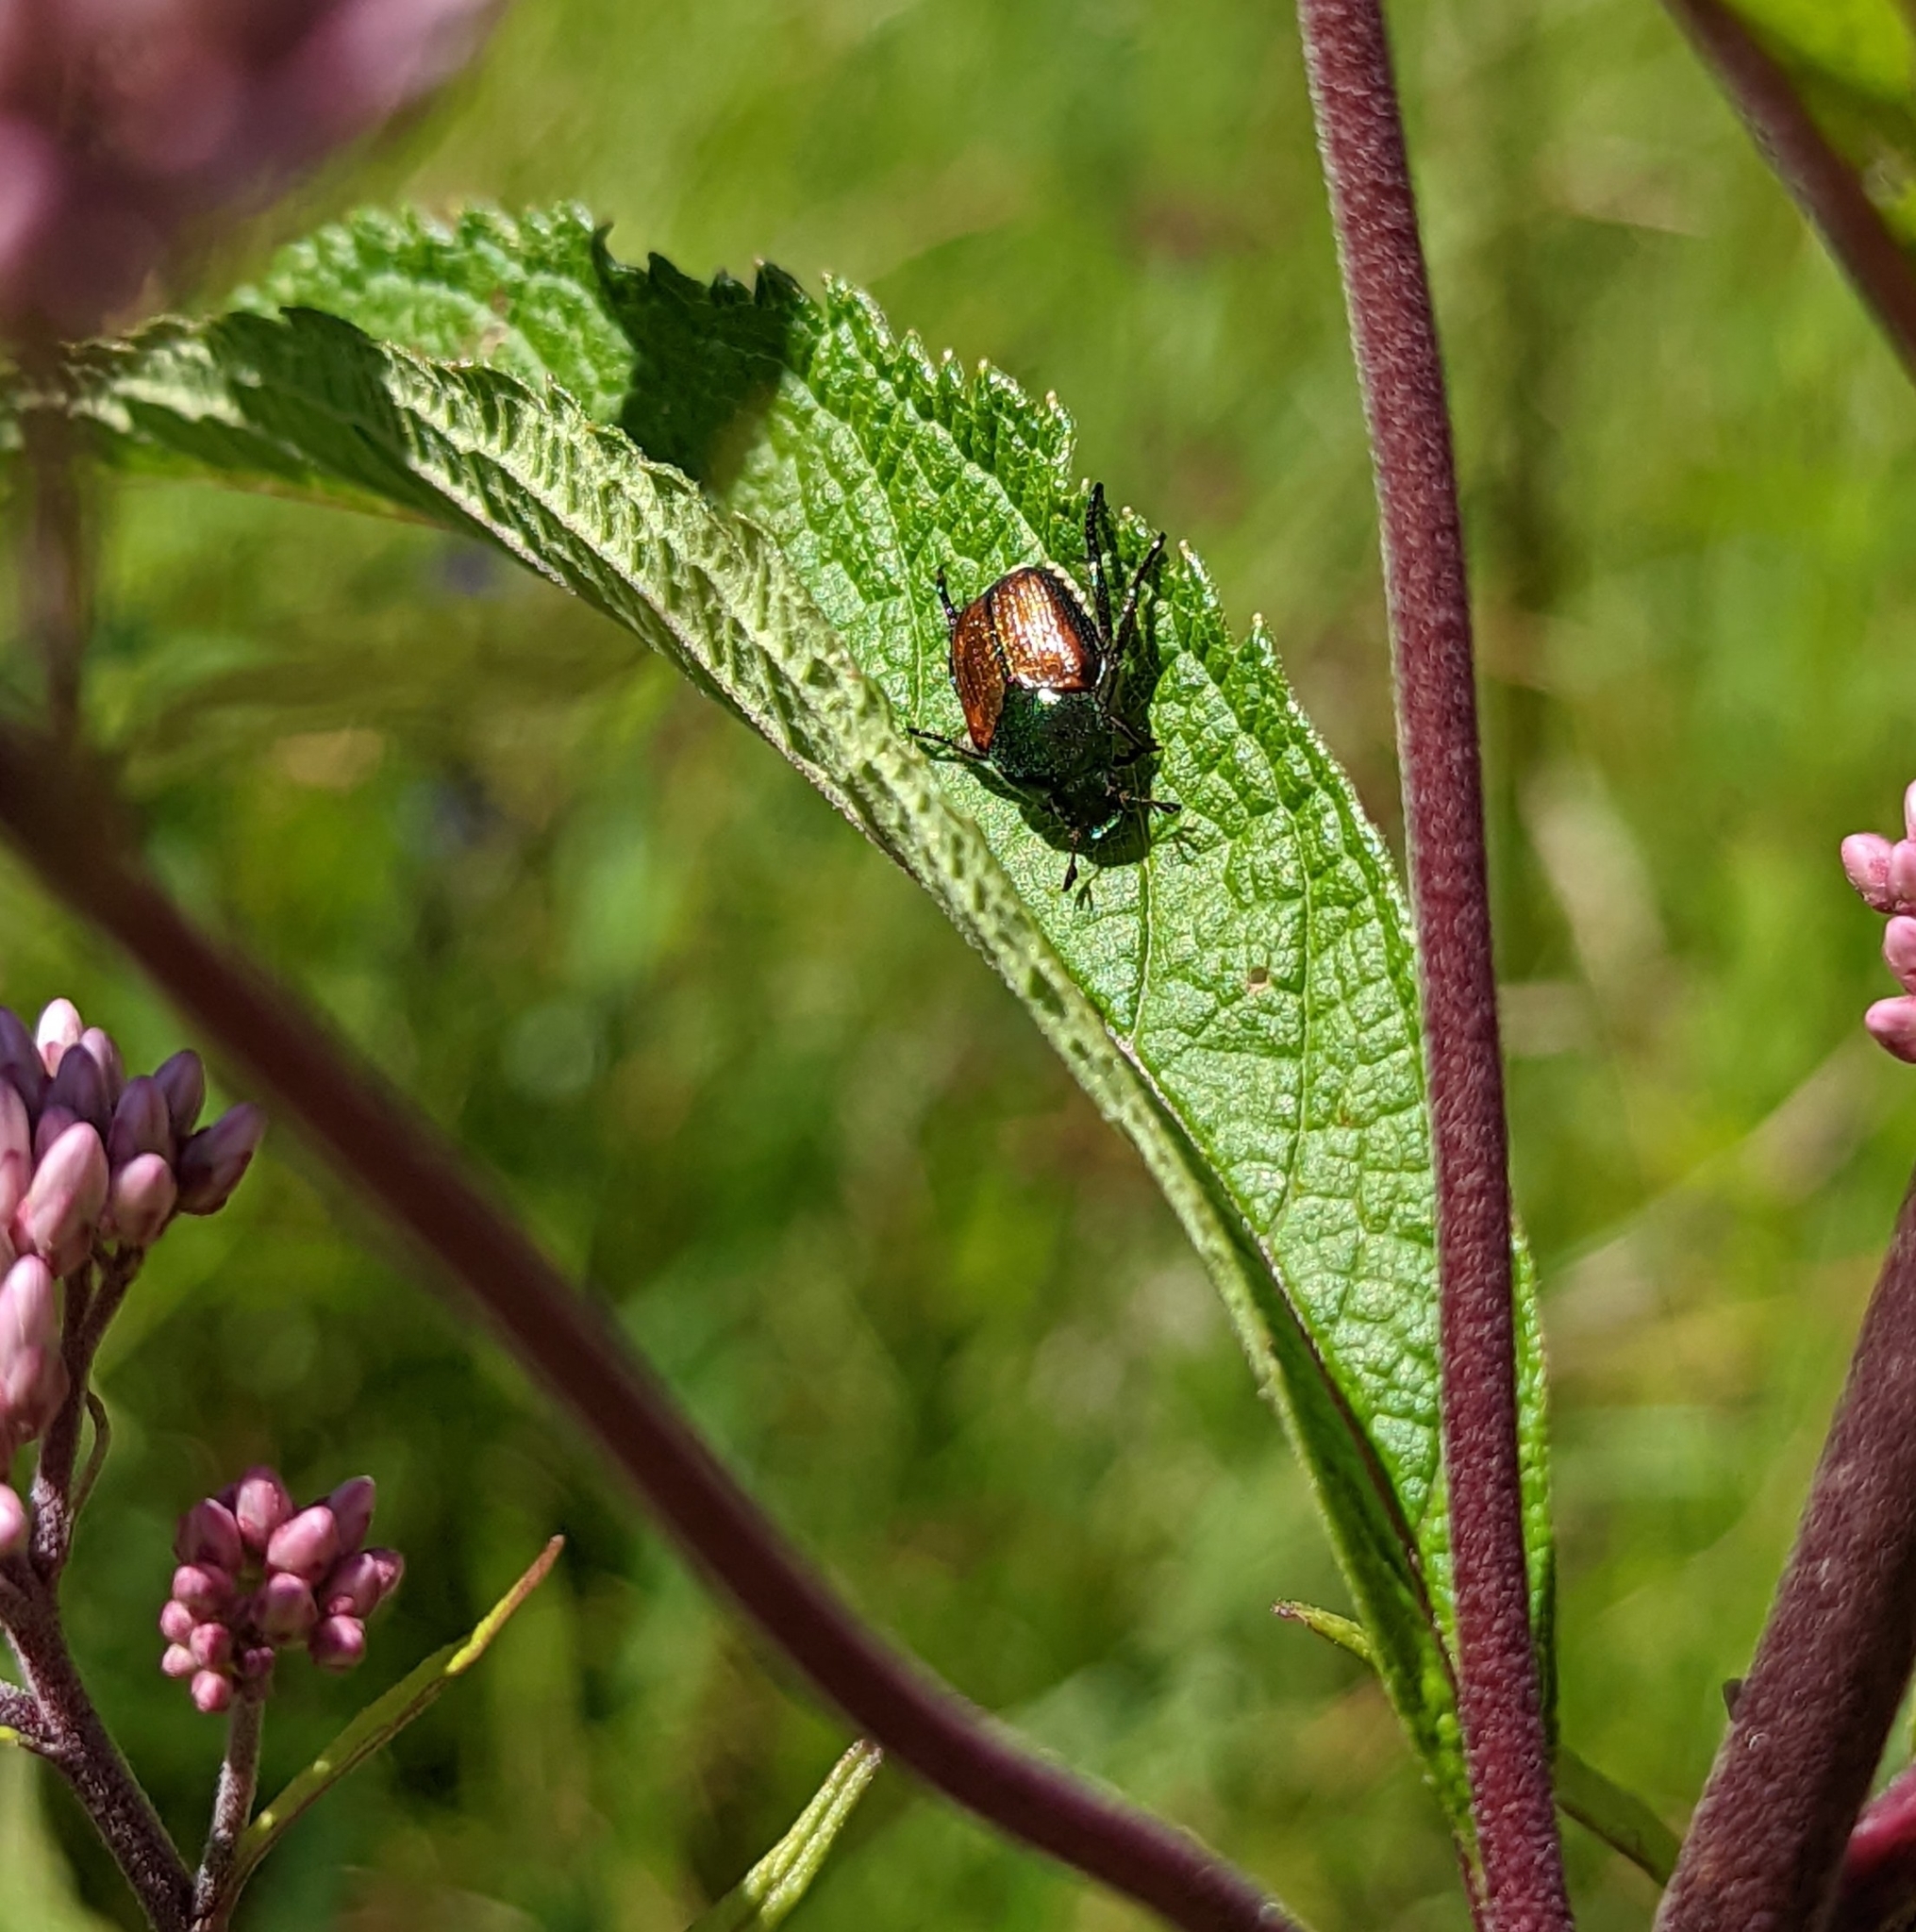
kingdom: Animalia
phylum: Arthropoda
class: Insecta
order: Coleoptera
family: Scarabaeidae
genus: Popillia
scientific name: Popillia japonica
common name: Japanese beetle
